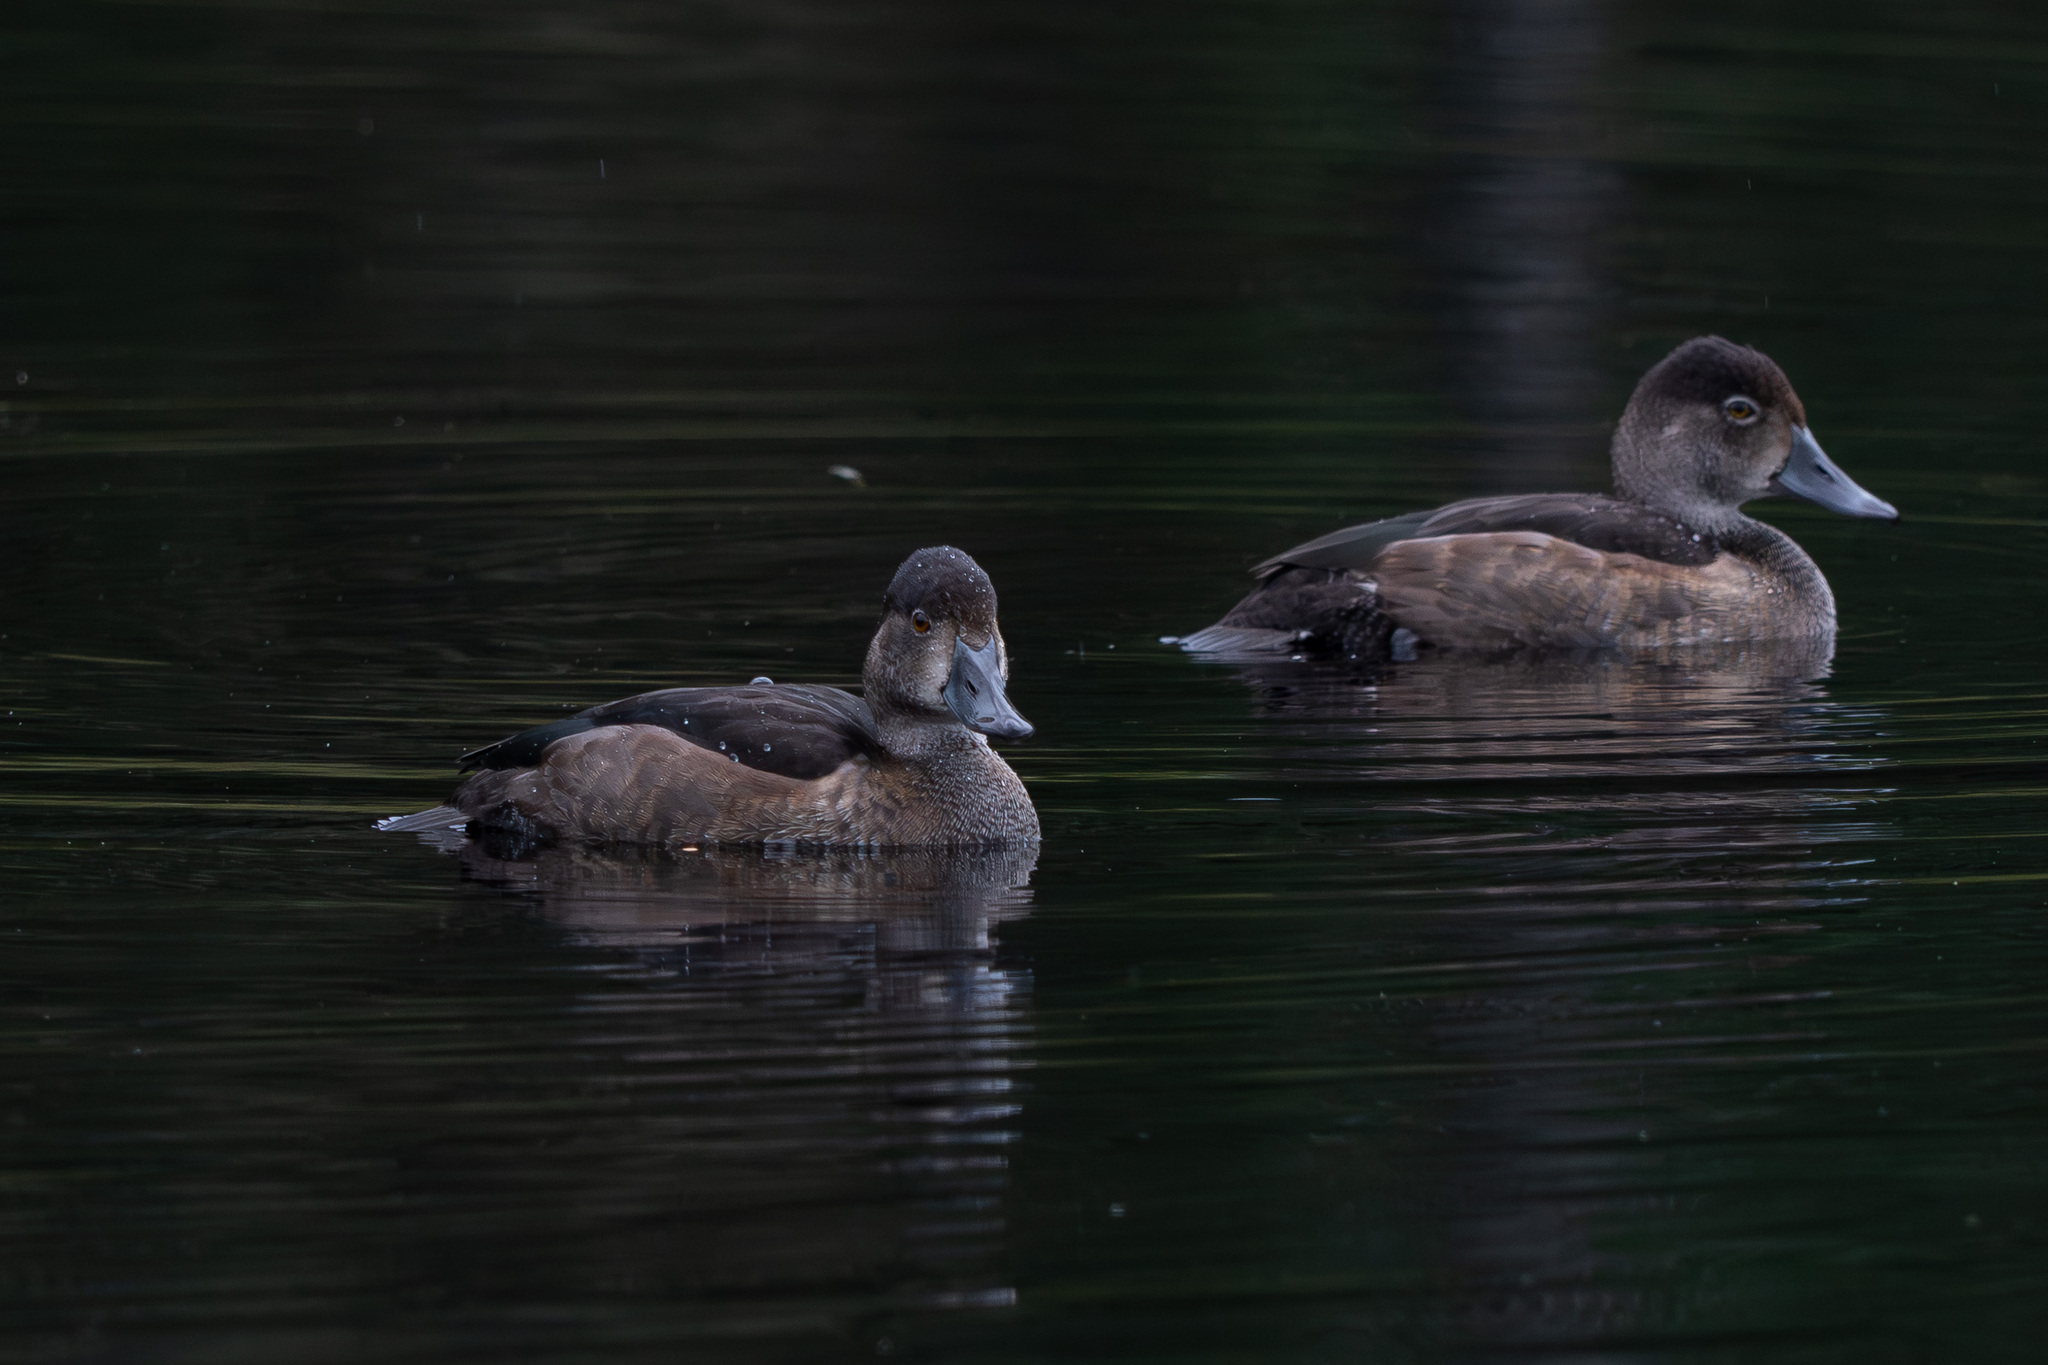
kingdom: Animalia
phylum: Chordata
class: Aves
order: Anseriformes
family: Anatidae
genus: Aythya
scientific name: Aythya collaris
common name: Ring-necked duck
